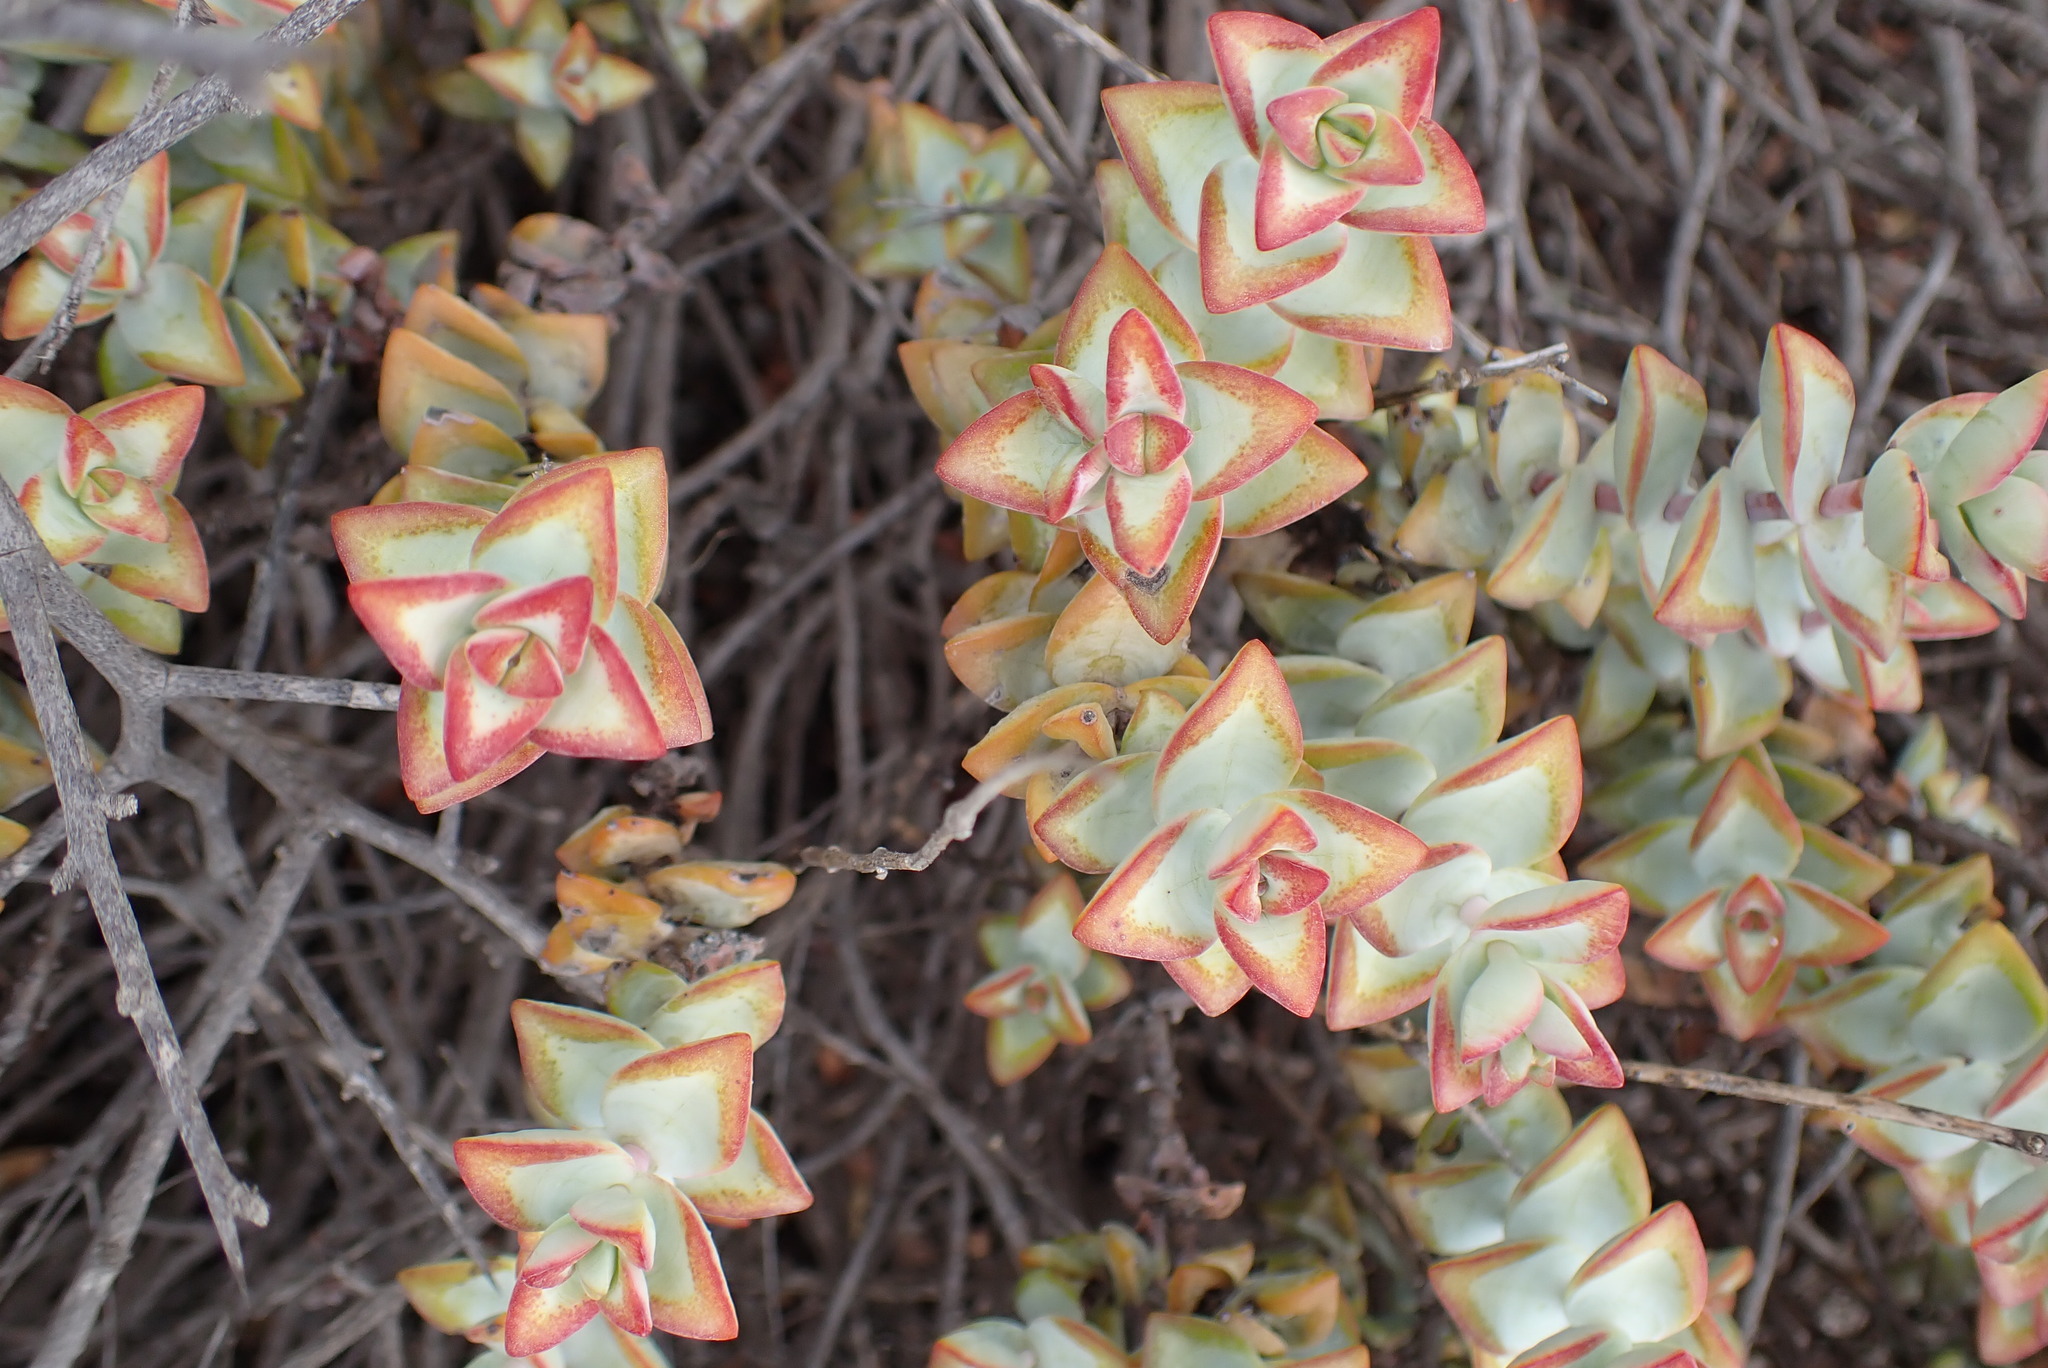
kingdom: Plantae
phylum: Tracheophyta
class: Magnoliopsida
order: Saxifragales
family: Crassulaceae
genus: Crassula
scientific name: Crassula rupestris
